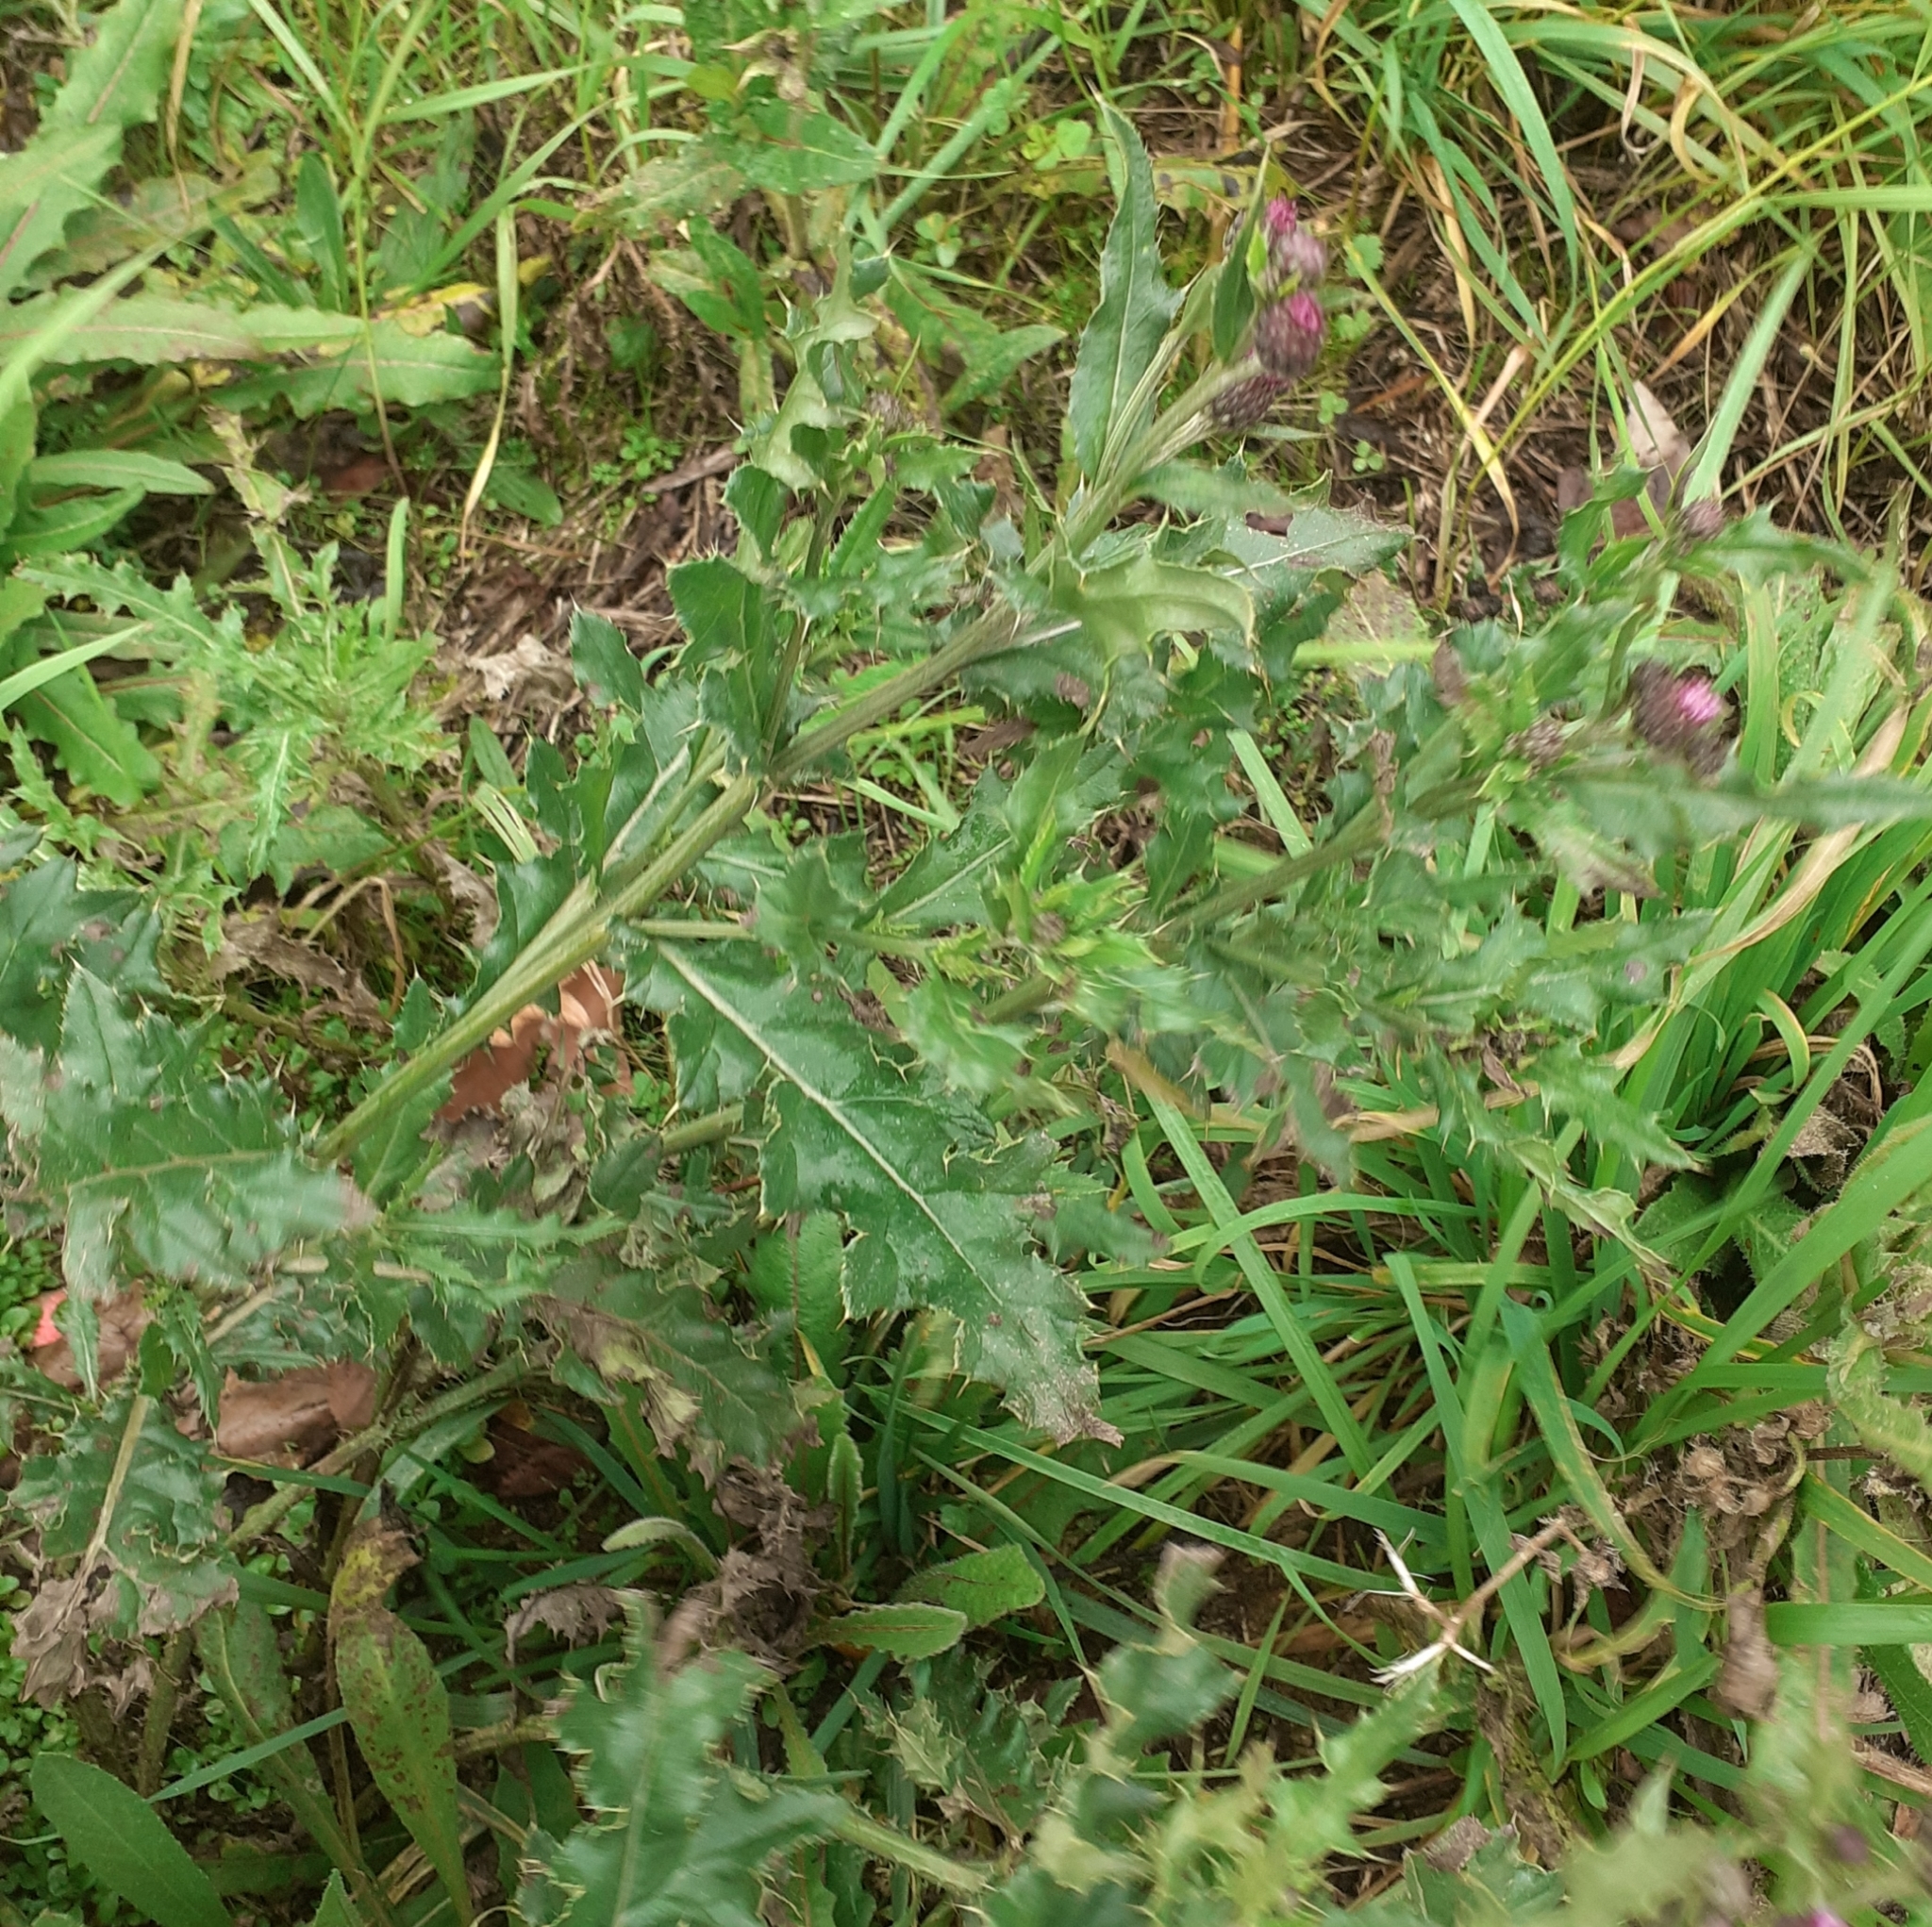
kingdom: Plantae
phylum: Tracheophyta
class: Magnoliopsida
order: Asterales
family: Asteraceae
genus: Cirsium
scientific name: Cirsium arvense
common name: Creeping thistle
